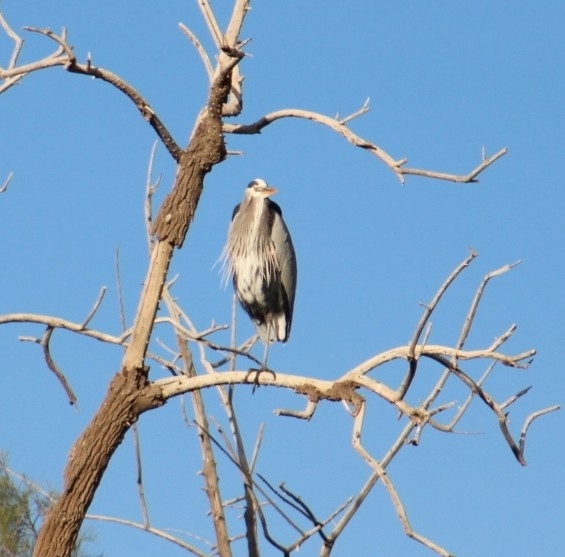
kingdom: Animalia
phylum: Chordata
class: Aves
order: Pelecaniformes
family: Ardeidae
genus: Ardea
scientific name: Ardea herodias
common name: Great blue heron
